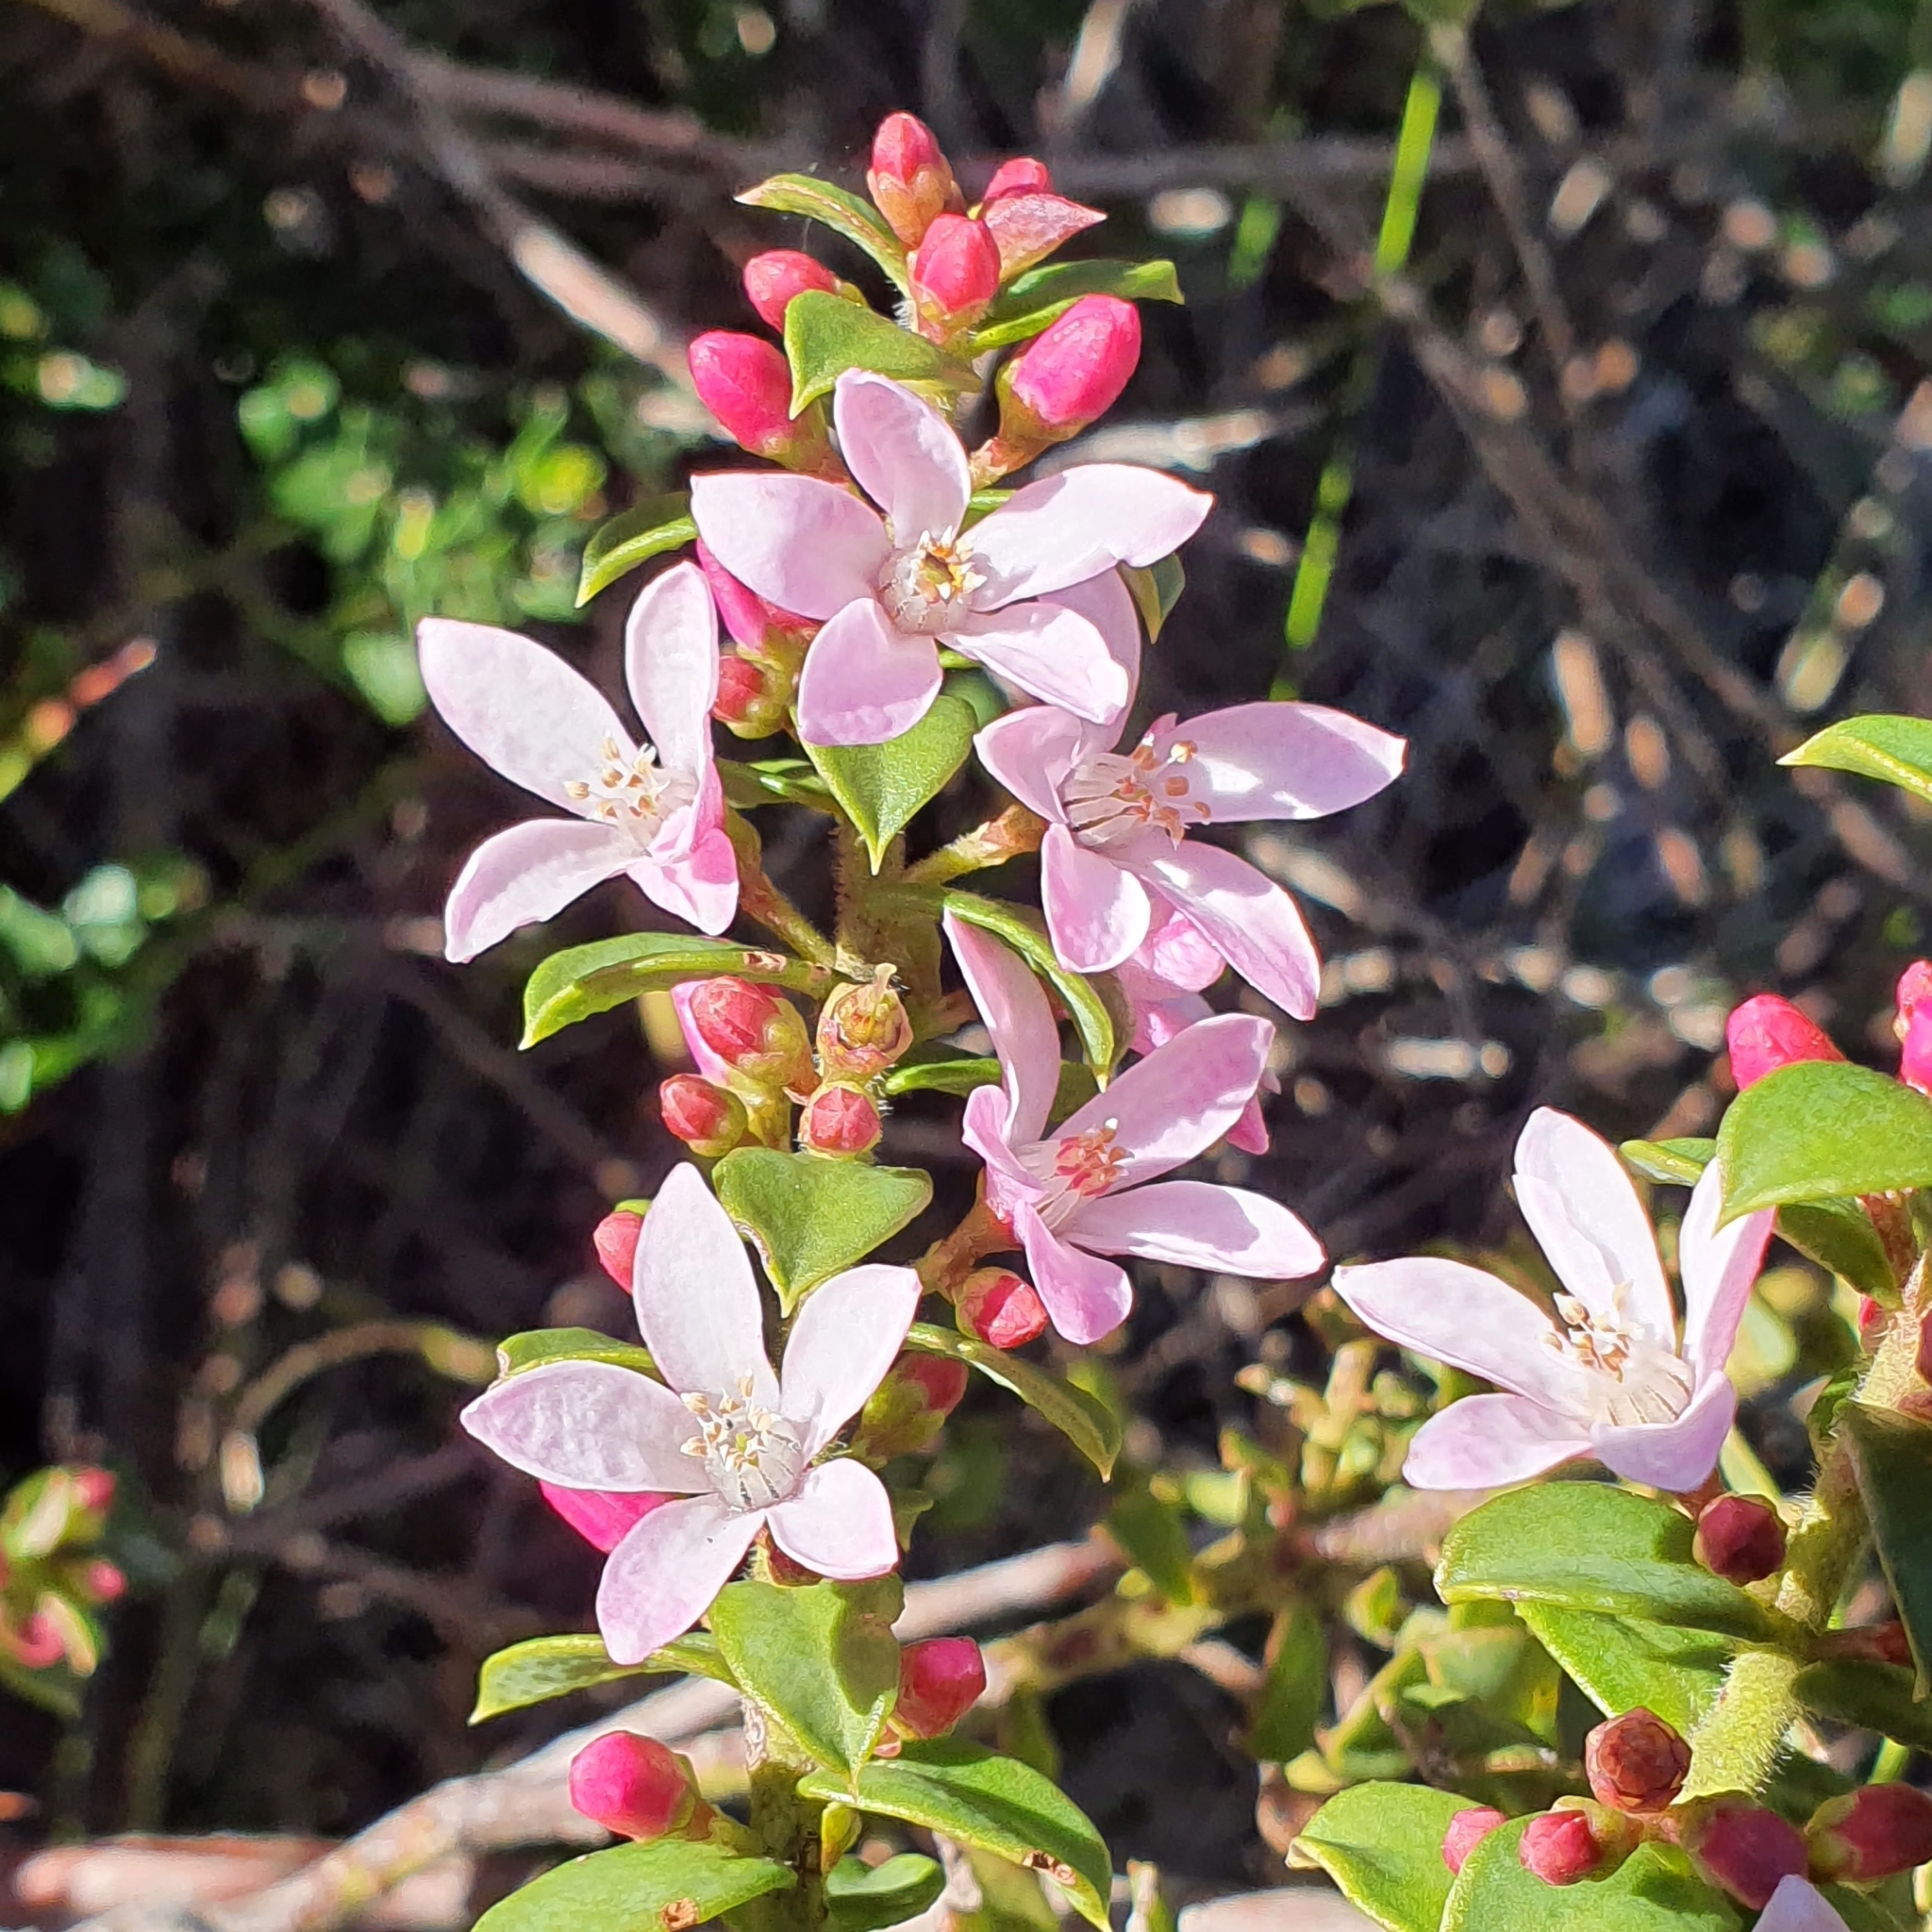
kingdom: Plantae
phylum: Tracheophyta
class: Magnoliopsida
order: Sapindales
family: Rutaceae
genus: Philotheca
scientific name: Philotheca buxifolia
